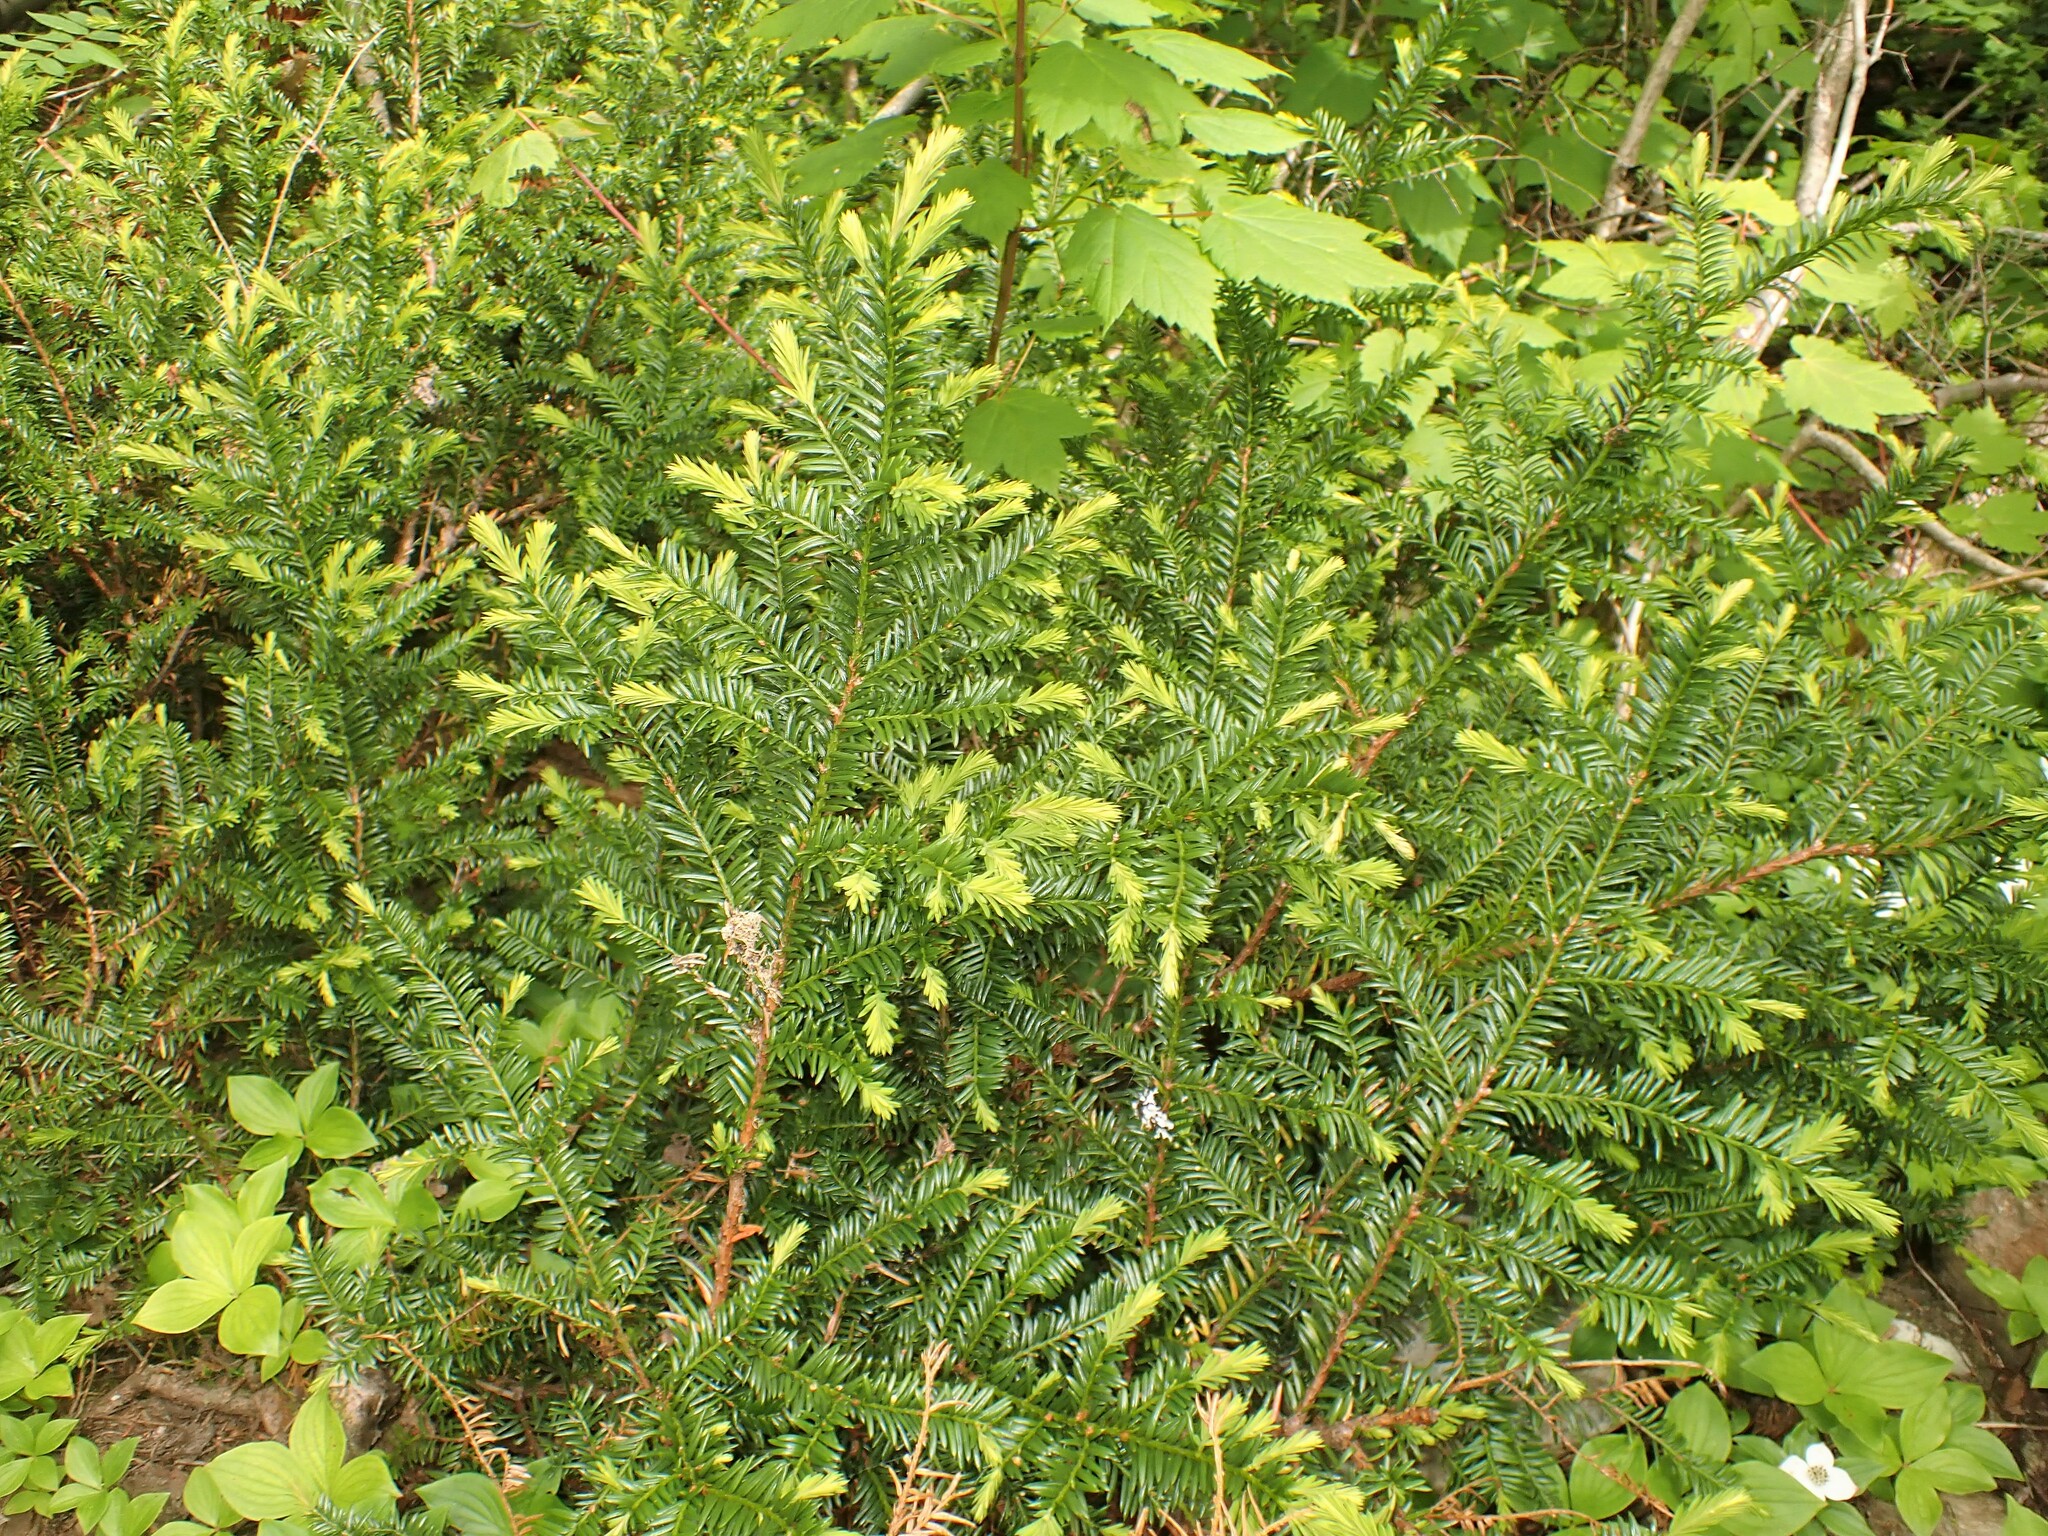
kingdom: Plantae
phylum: Tracheophyta
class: Pinopsida
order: Pinales
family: Taxaceae
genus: Taxus
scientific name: Taxus canadensis
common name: American yew
